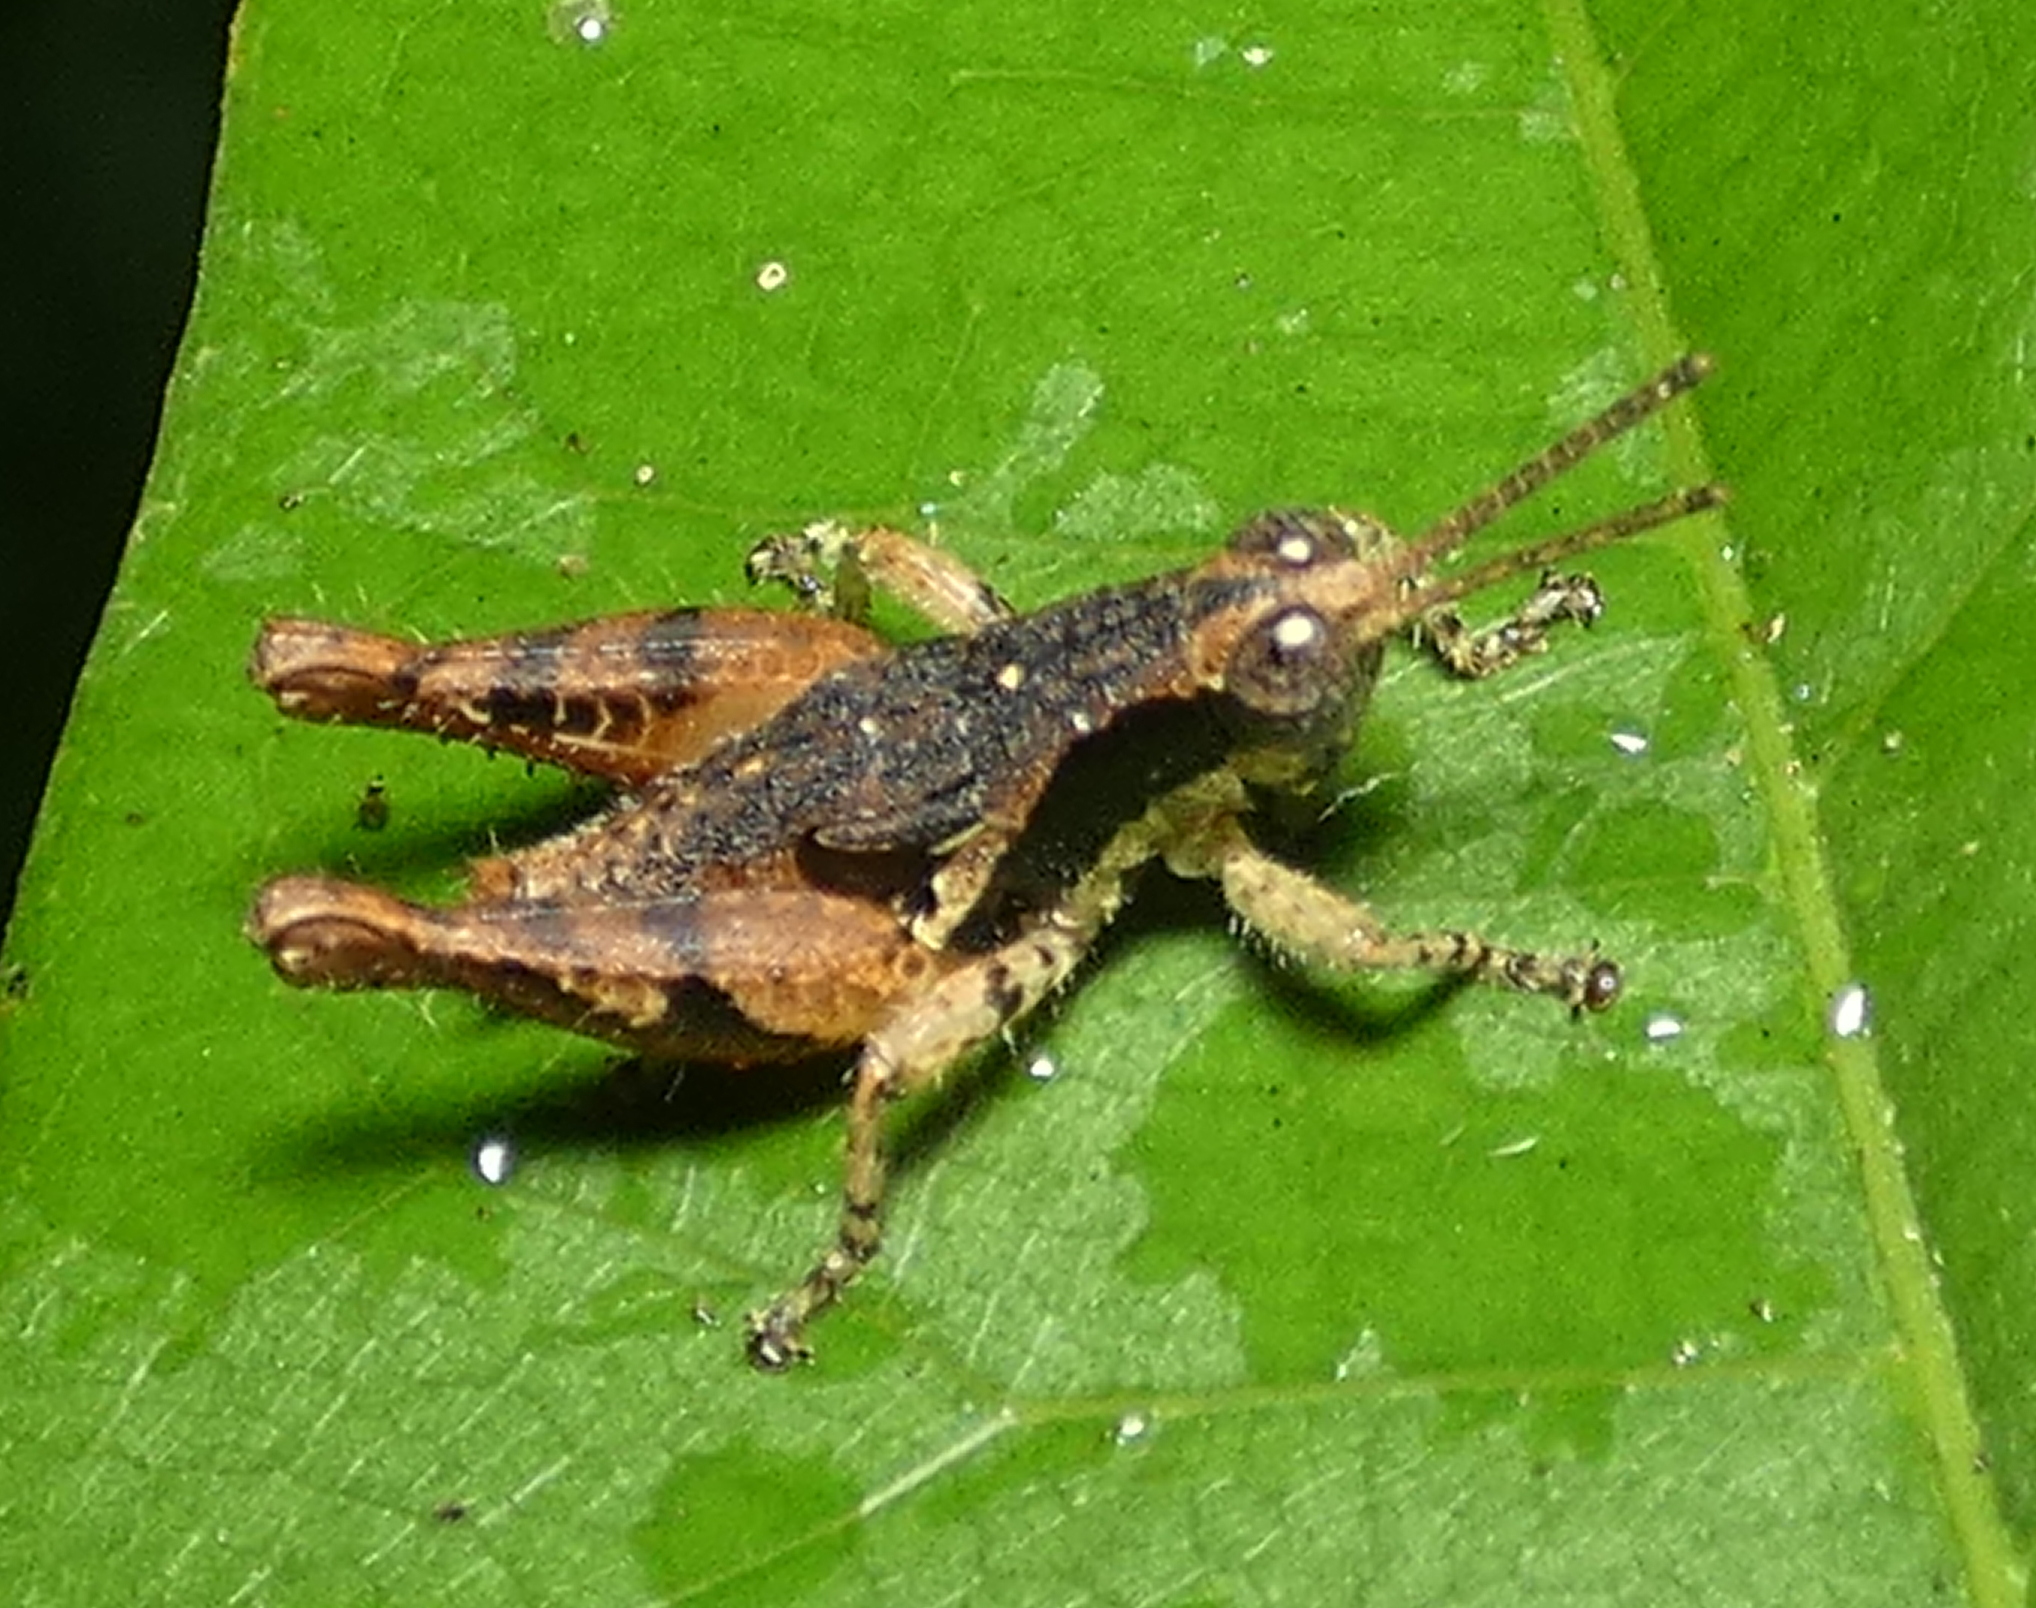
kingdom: Animalia
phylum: Arthropoda
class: Insecta
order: Orthoptera
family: Acrididae
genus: Eujivarus
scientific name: Eujivarus meridionalis
